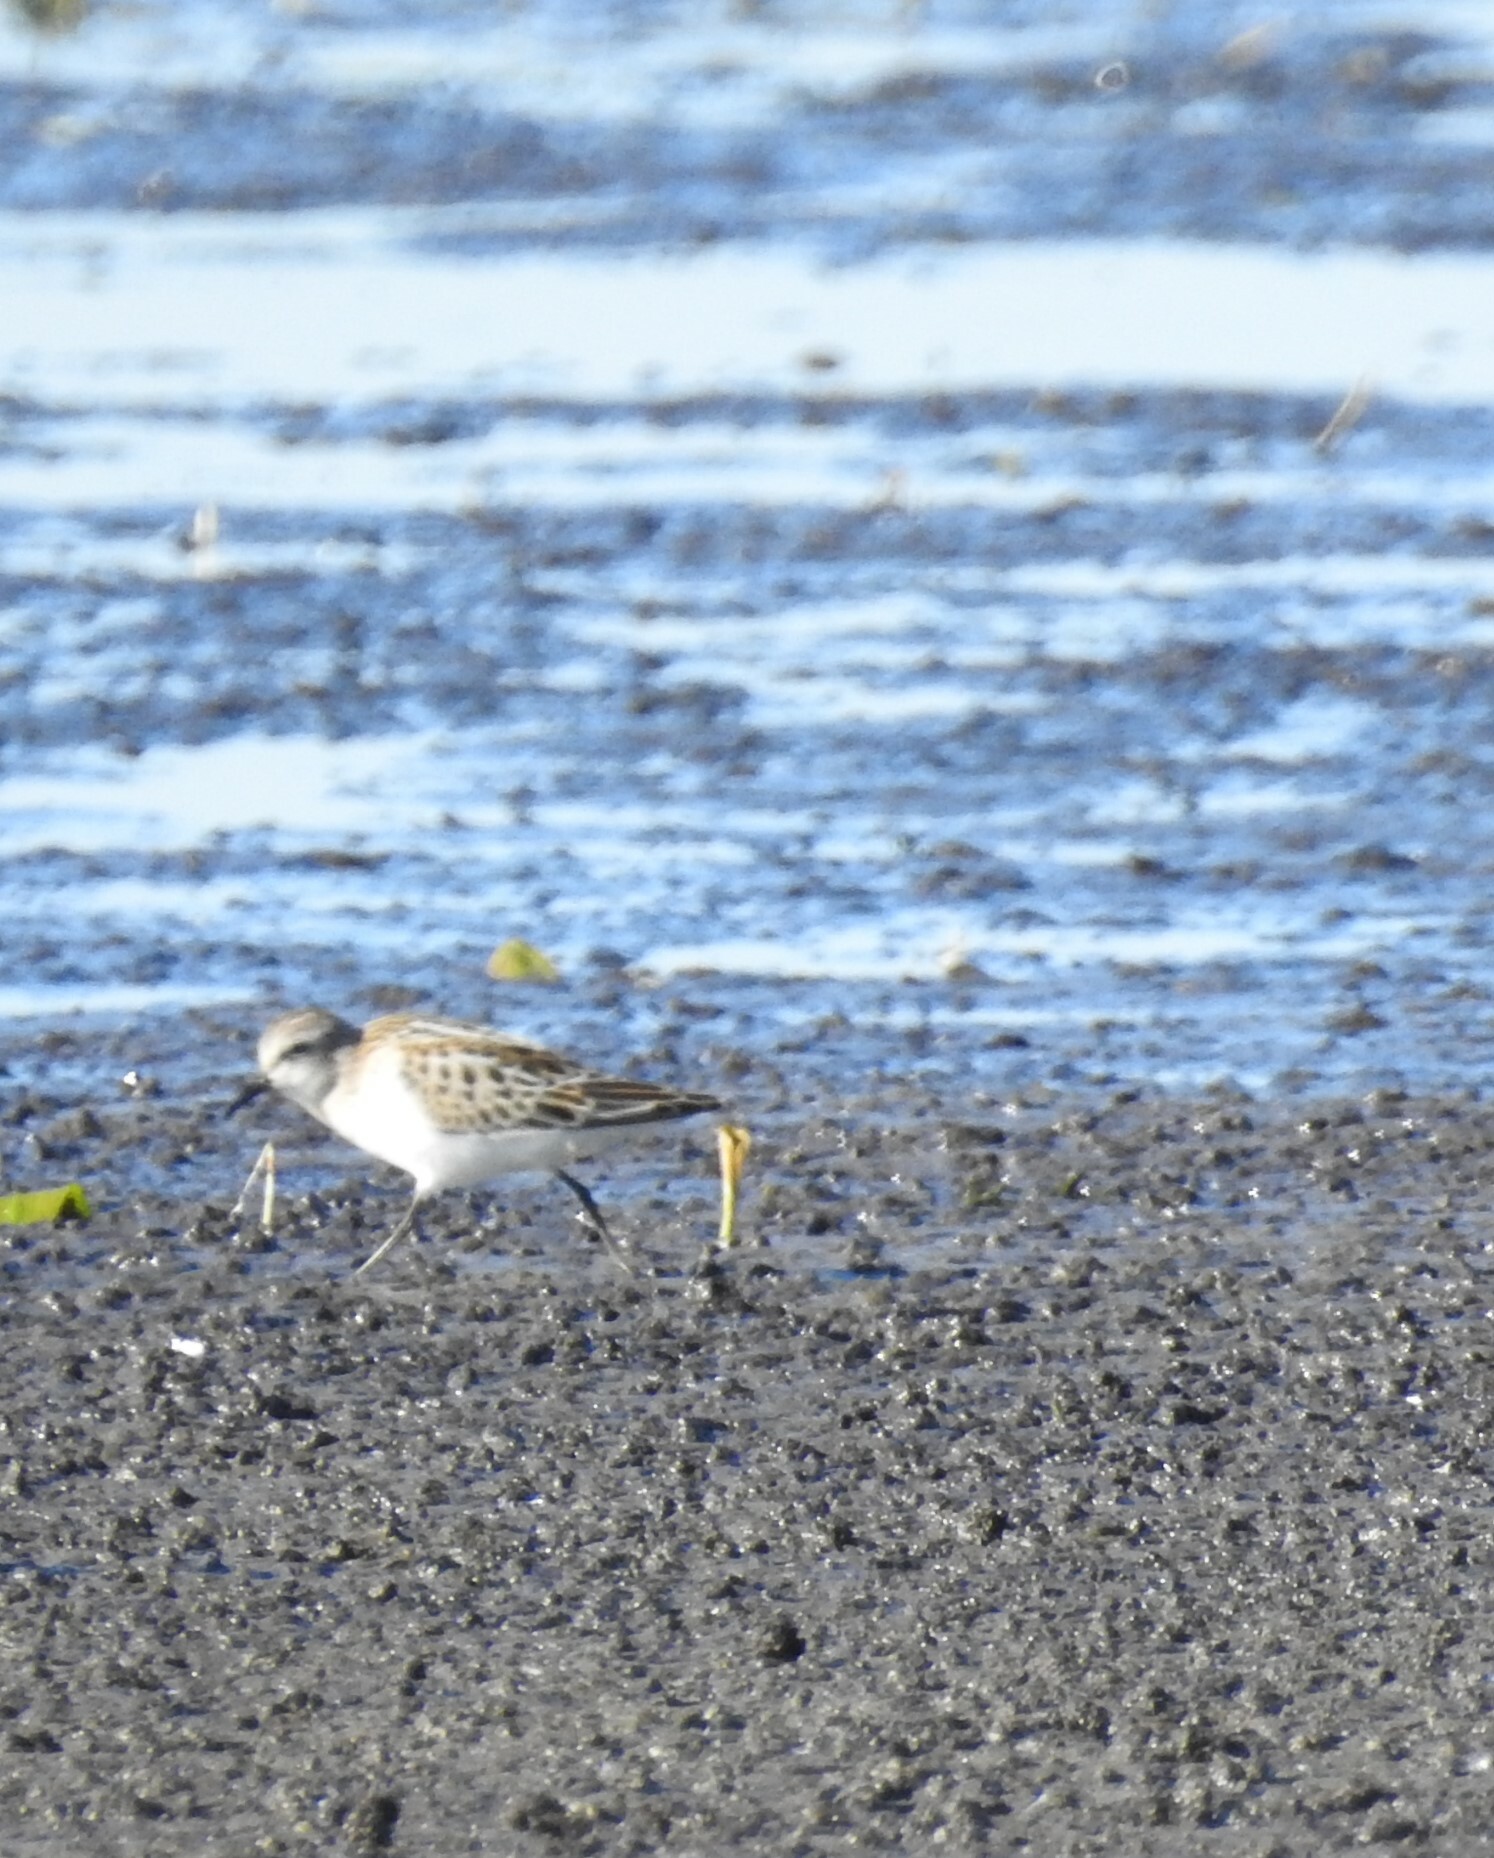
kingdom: Animalia
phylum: Chordata
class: Aves
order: Charadriiformes
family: Scolopacidae
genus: Calidris
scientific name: Calidris minuta
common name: Little stint
